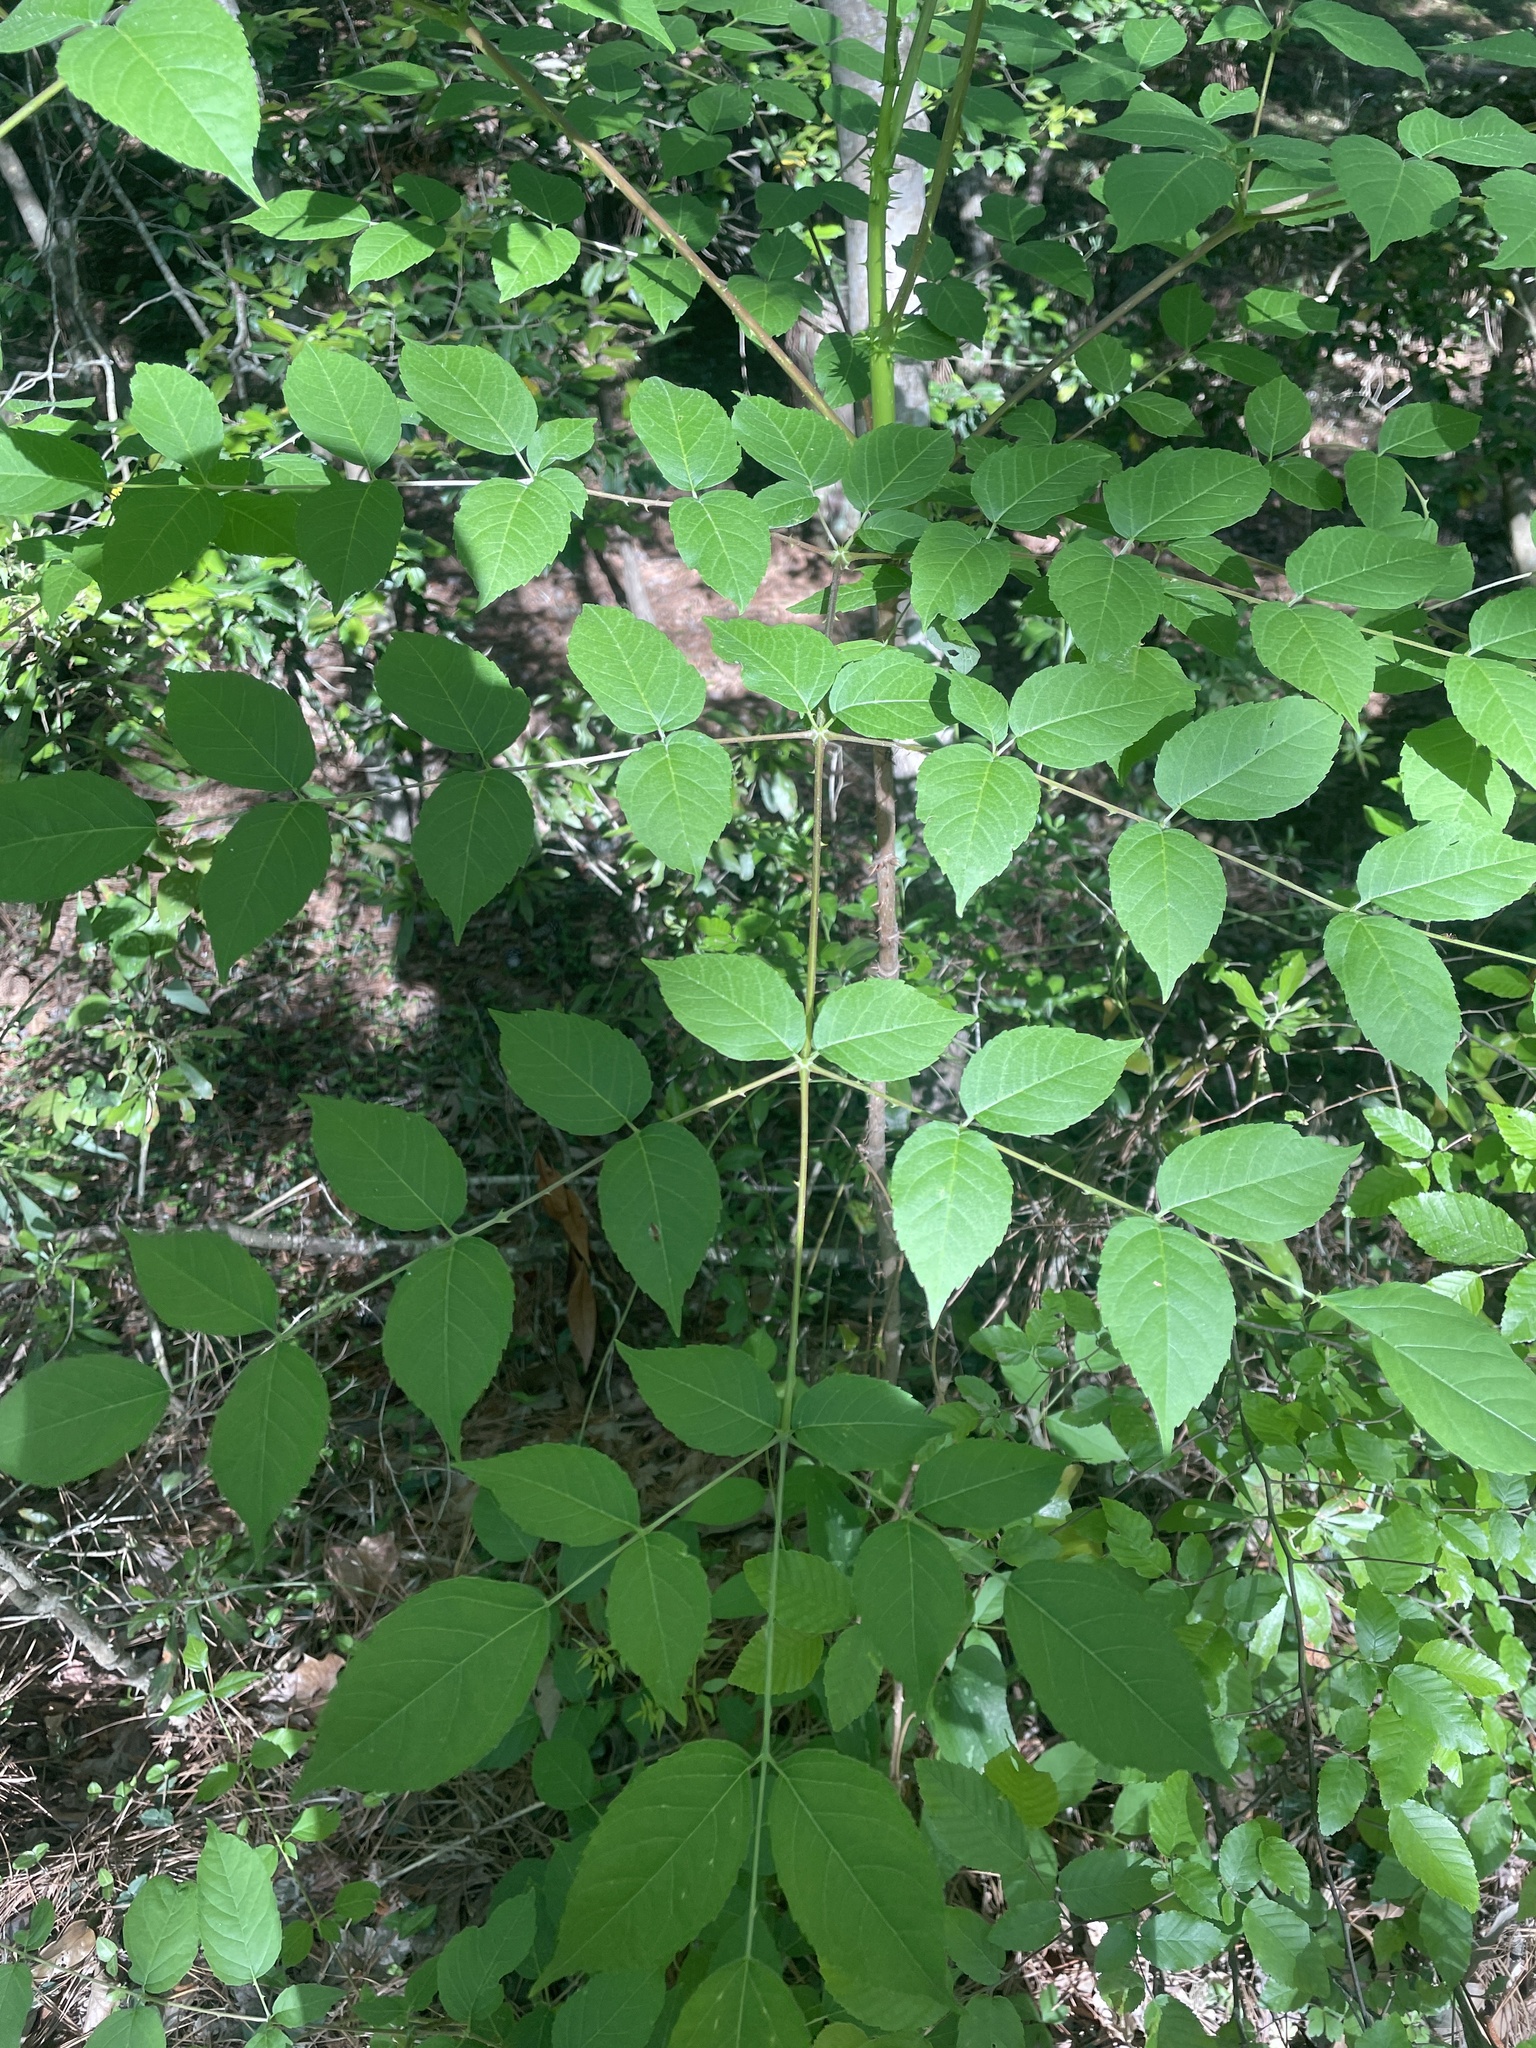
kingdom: Plantae
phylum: Tracheophyta
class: Magnoliopsida
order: Apiales
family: Araliaceae
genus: Aralia
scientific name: Aralia spinosa
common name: Hercules'-club
